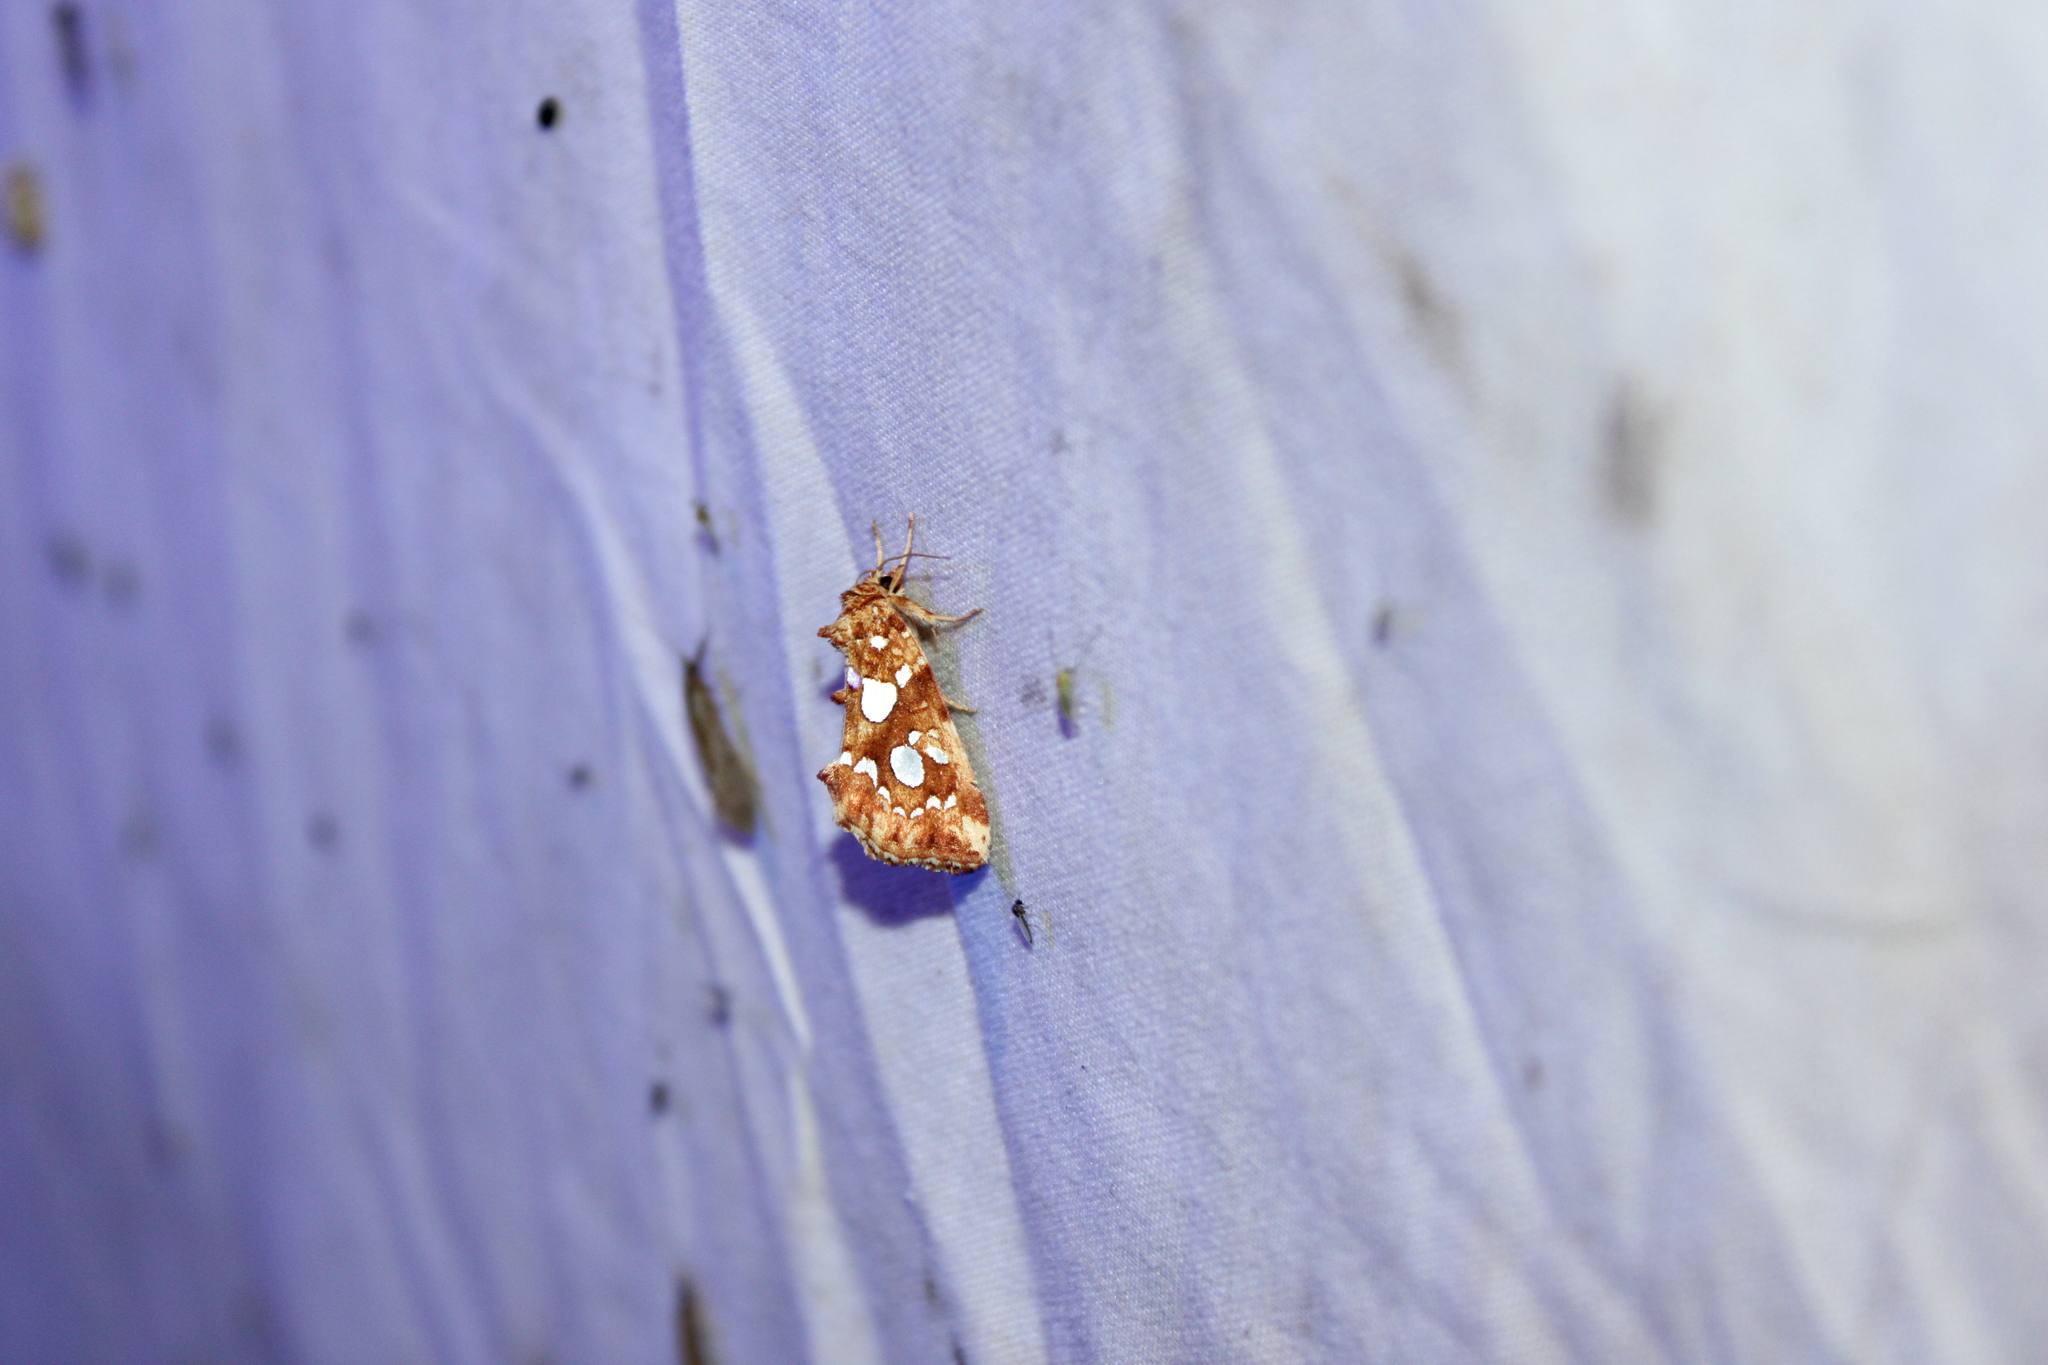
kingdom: Animalia
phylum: Arthropoda
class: Insecta
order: Lepidoptera
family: Noctuidae
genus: Callopistria
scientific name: Callopistria cordata
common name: Silver-spotted fern moth
